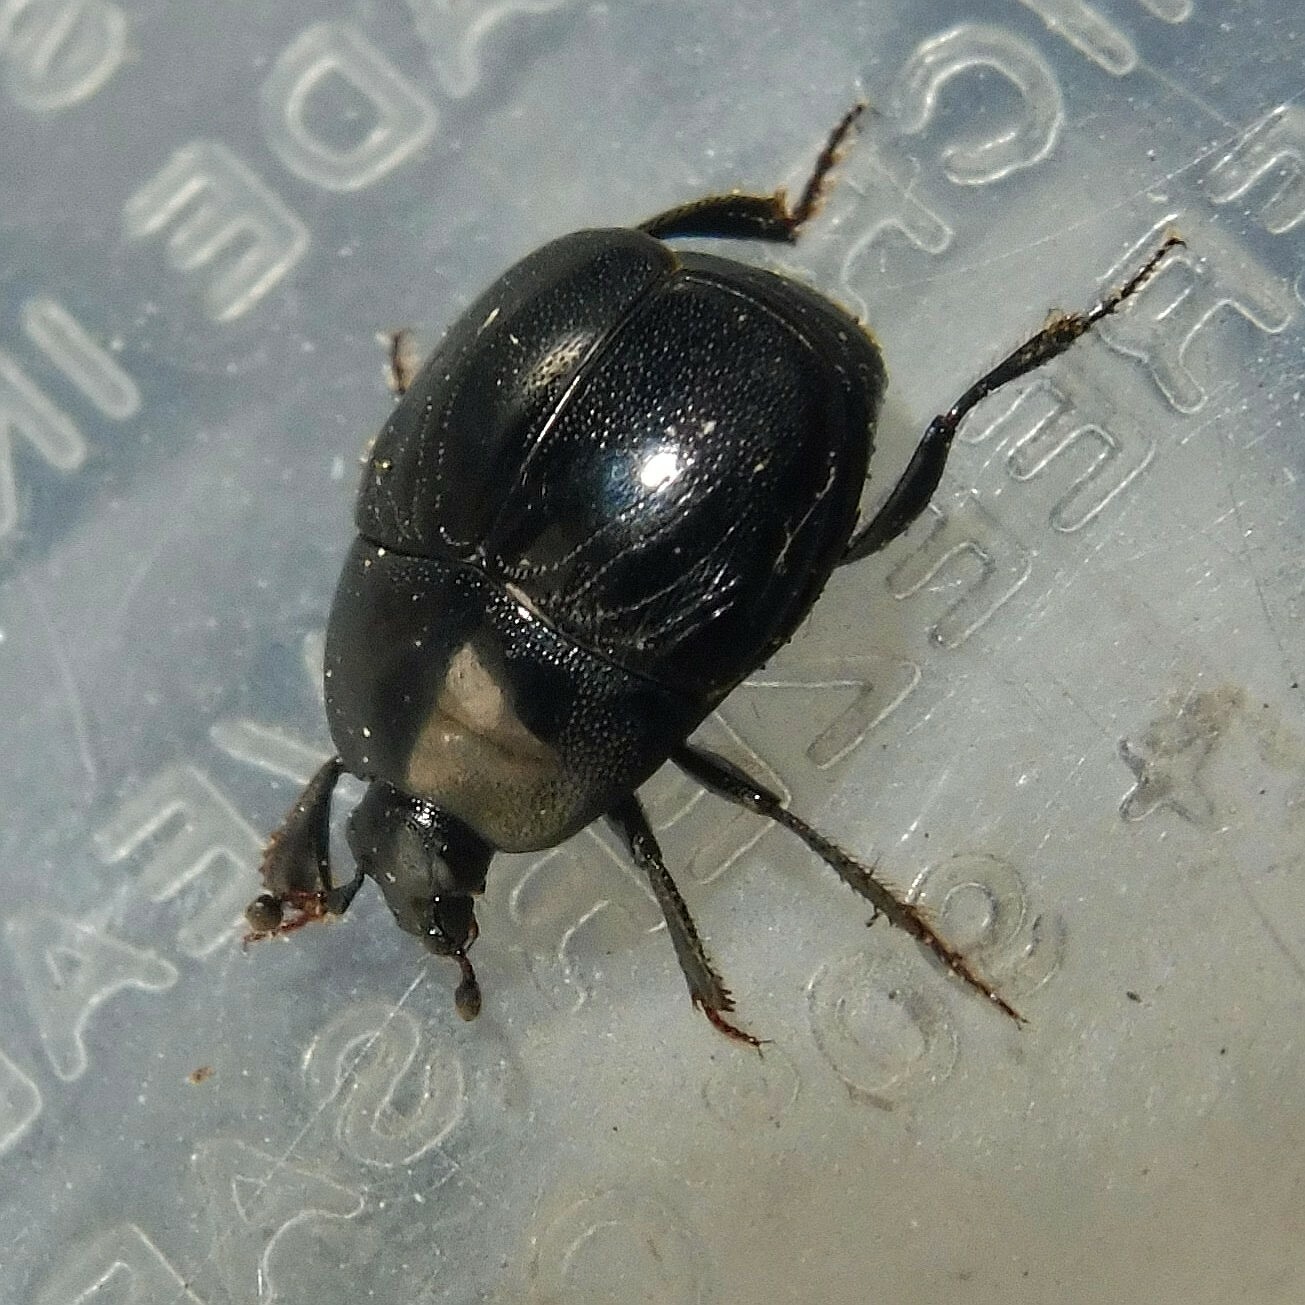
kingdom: Animalia
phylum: Arthropoda
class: Insecta
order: Coleoptera
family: Histeridae
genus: Saprinus
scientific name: Saprinus semistriatus
